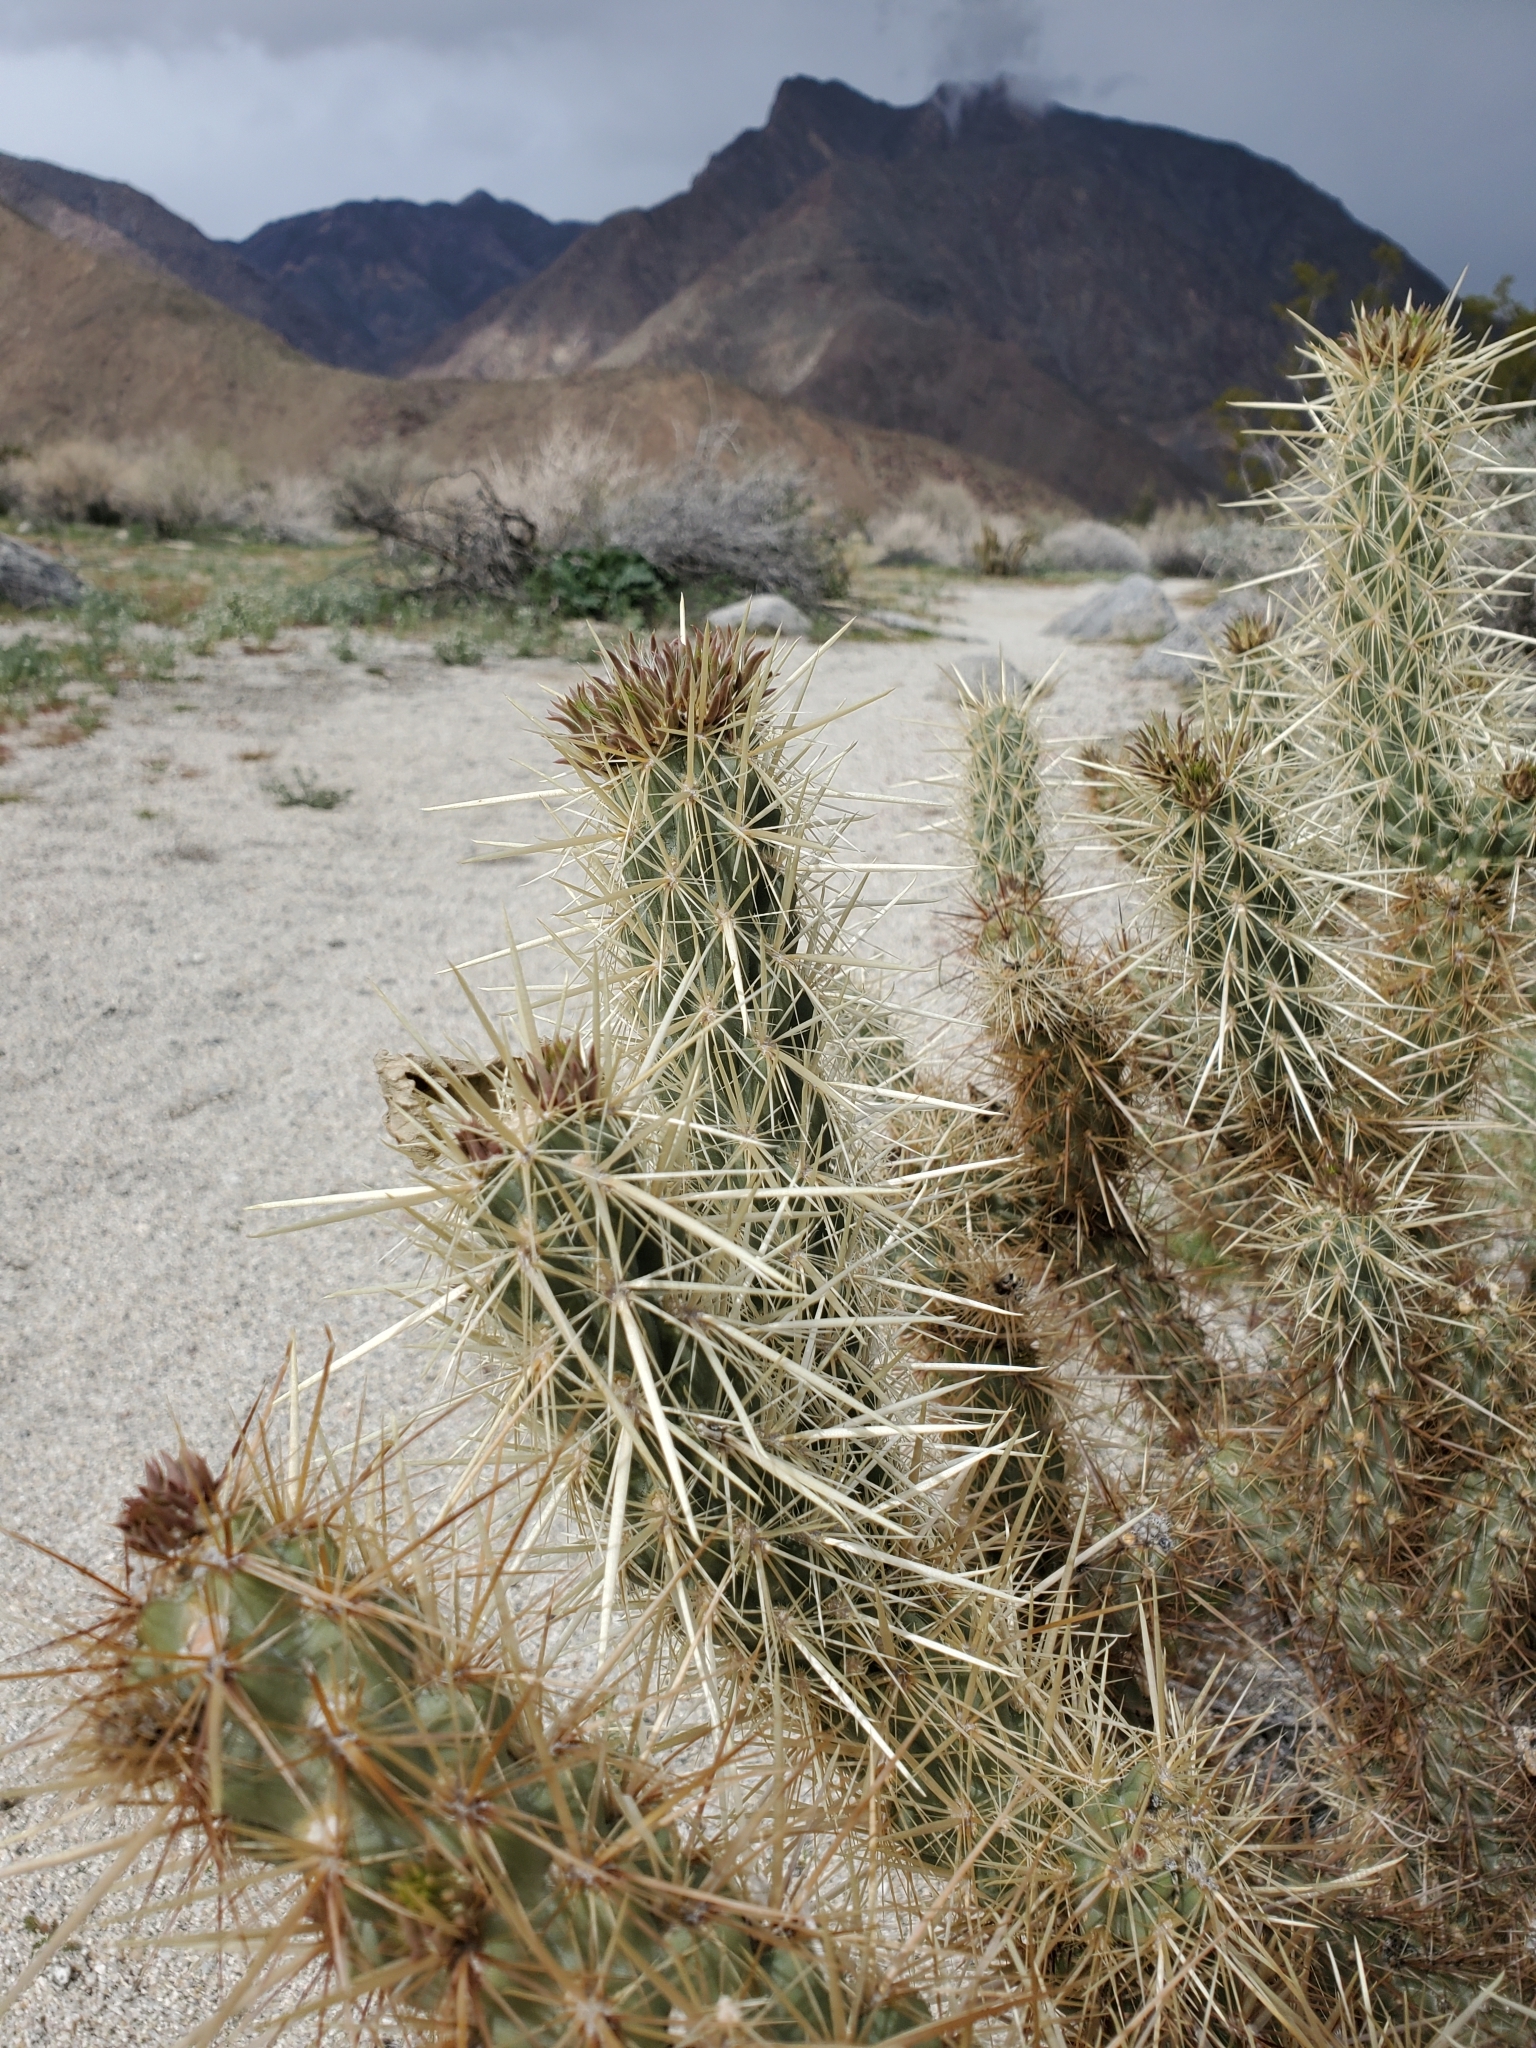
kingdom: Plantae
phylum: Tracheophyta
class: Magnoliopsida
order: Caryophyllales
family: Cactaceae
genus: Cylindropuntia
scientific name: Cylindropuntia ganderi
